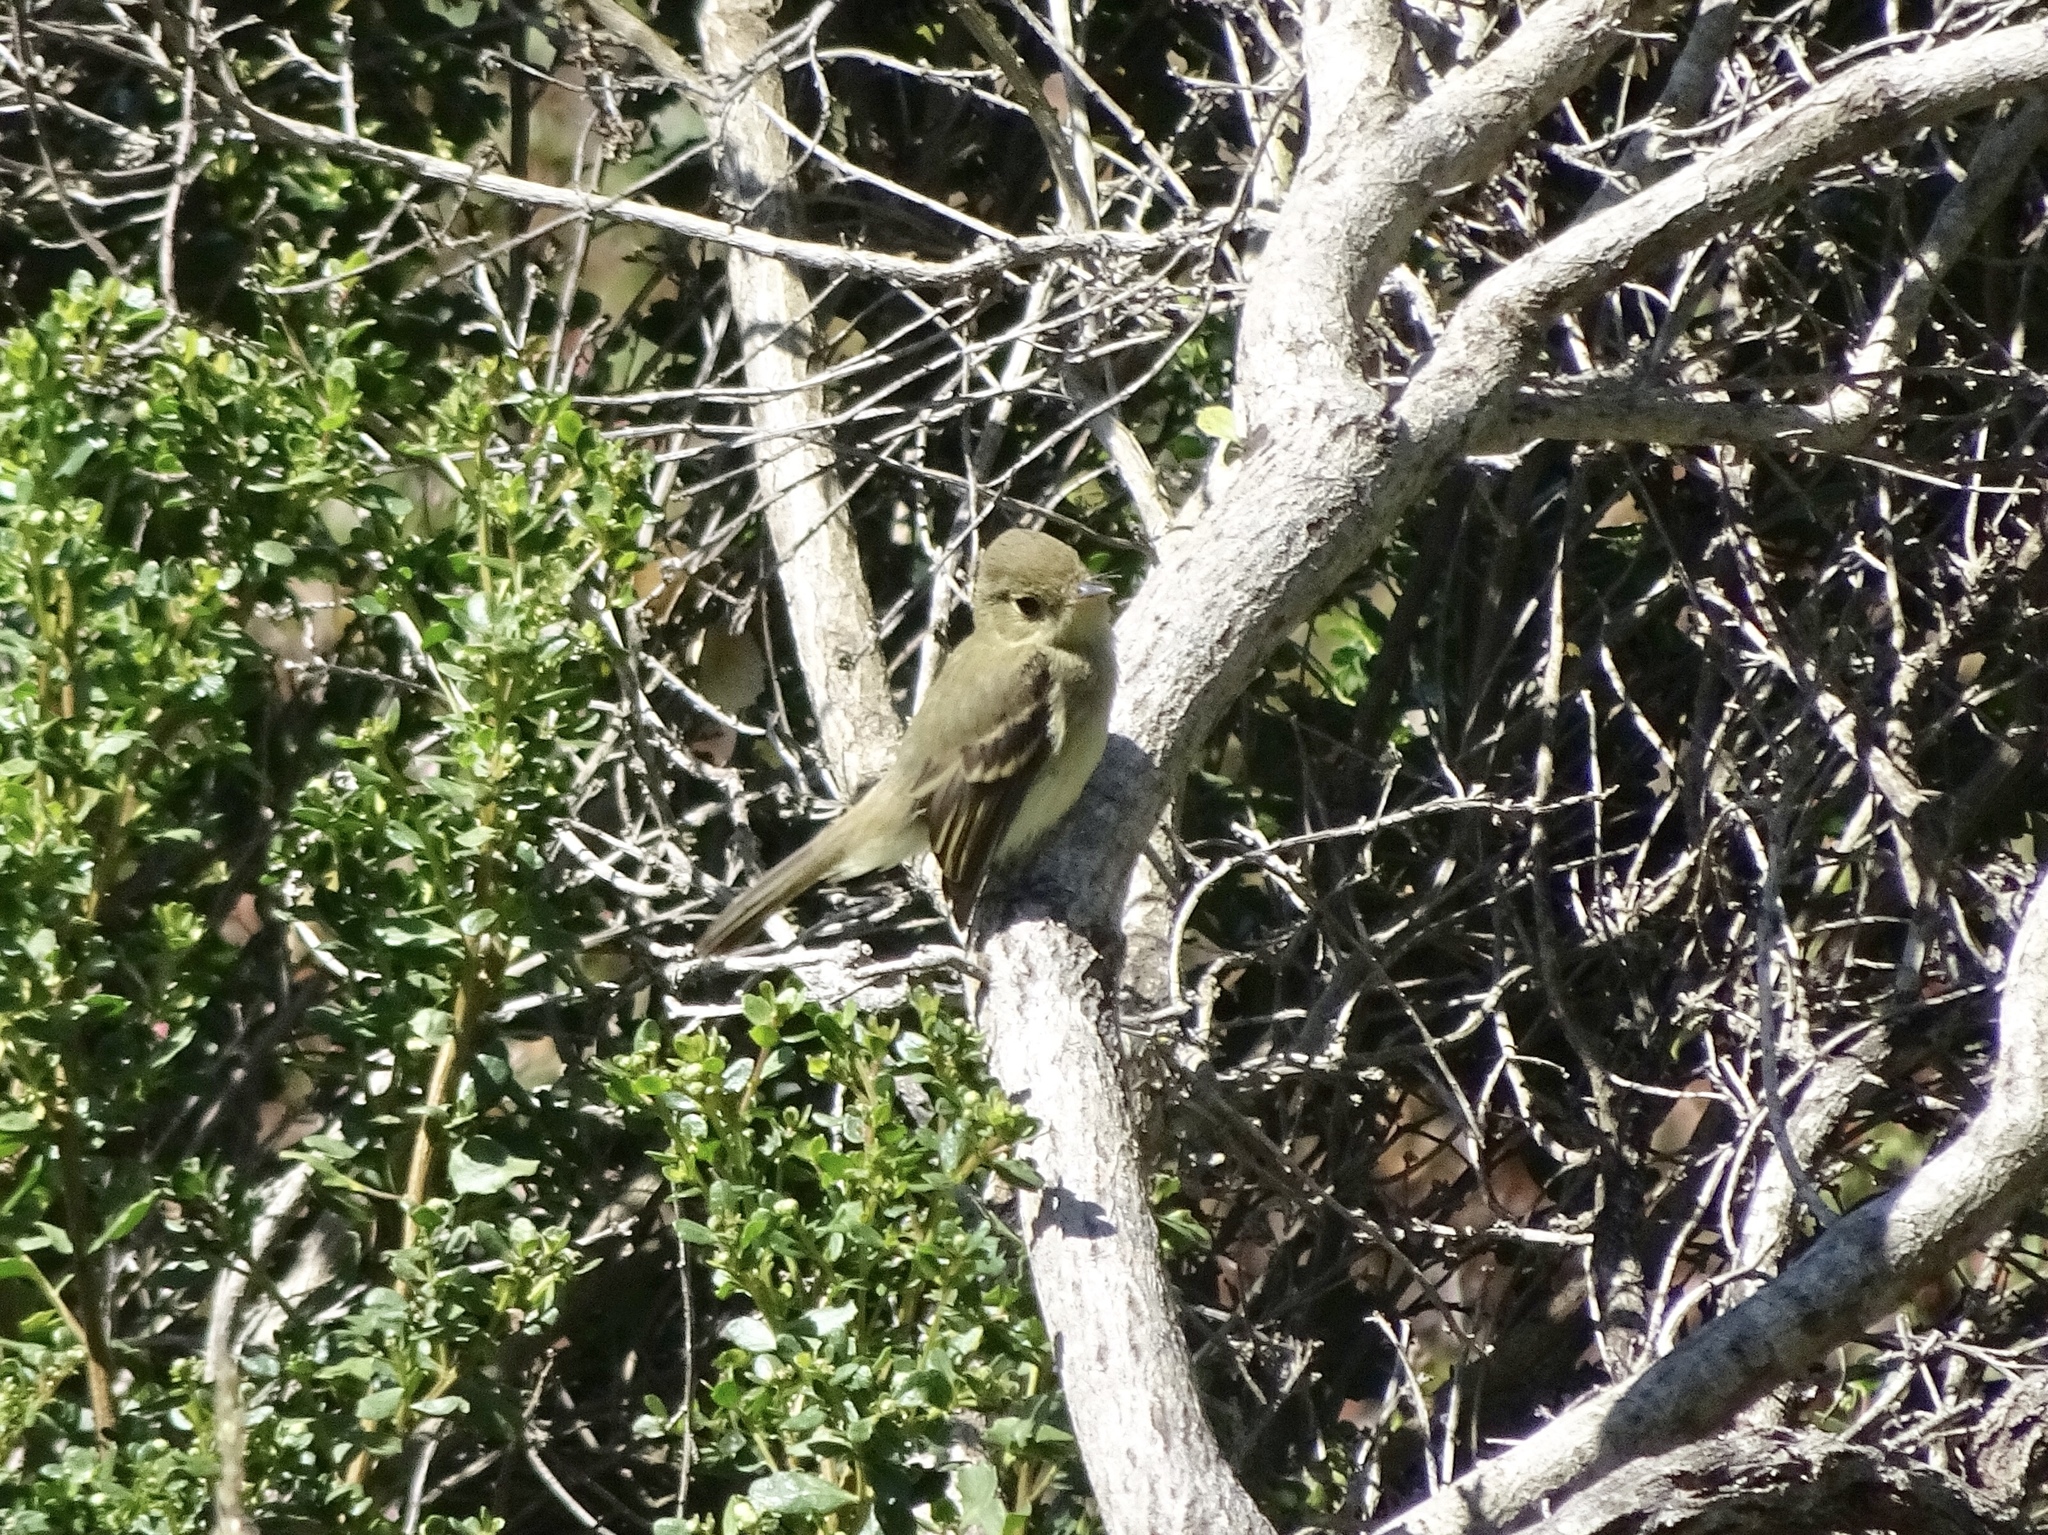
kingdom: Animalia
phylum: Chordata
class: Aves
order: Passeriformes
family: Tyrannidae
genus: Empidonax
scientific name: Empidonax difficilis
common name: Pacific-slope flycatcher
